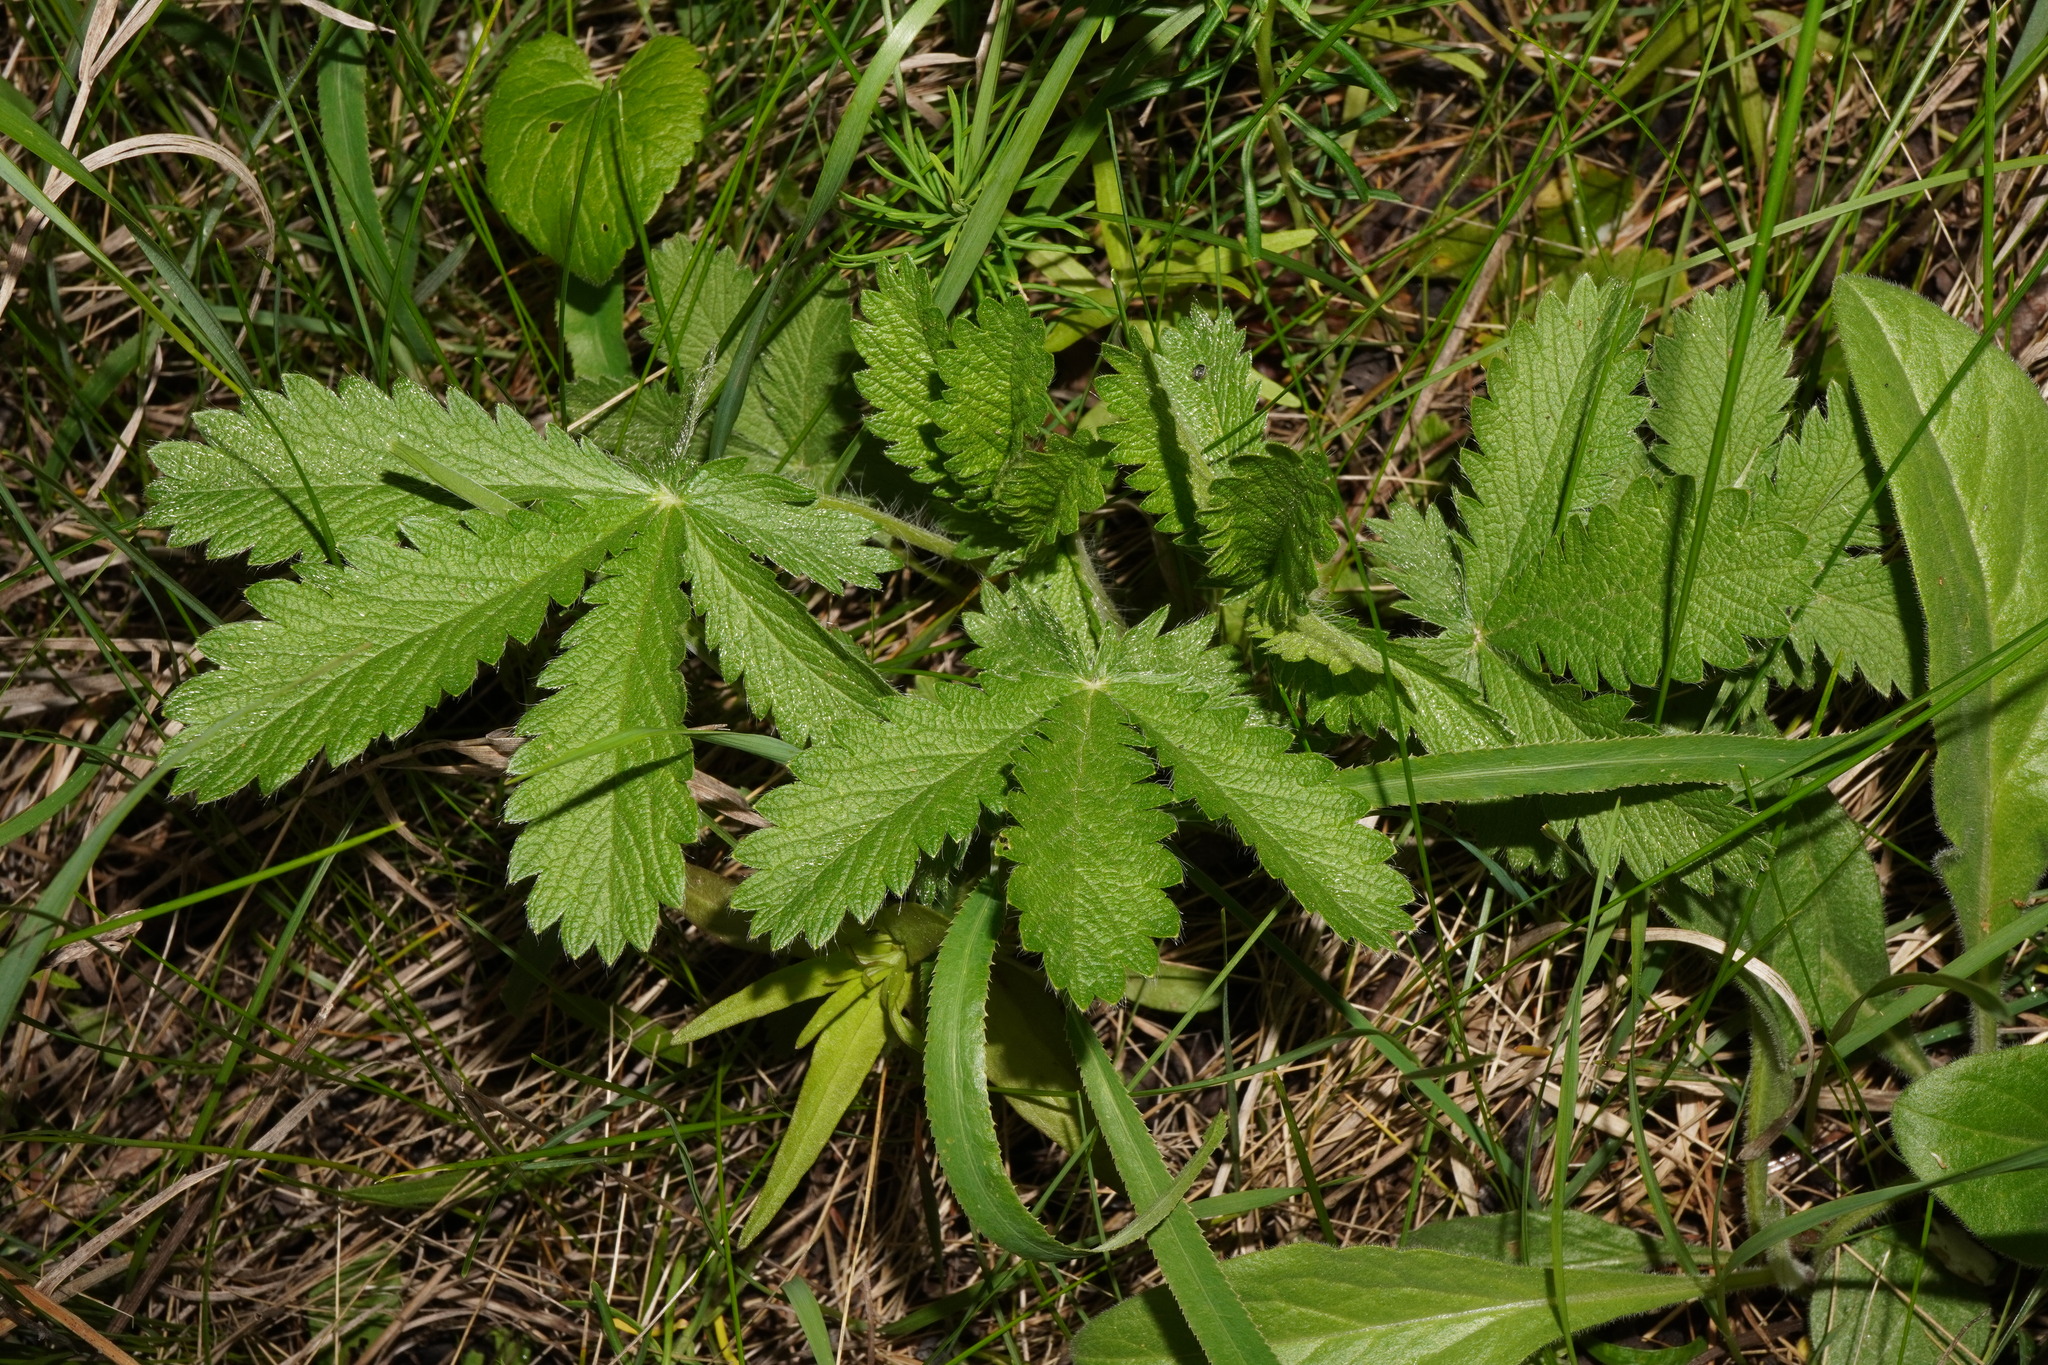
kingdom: Plantae
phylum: Tracheophyta
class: Magnoliopsida
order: Rosales
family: Rosaceae
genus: Potentilla
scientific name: Potentilla recta
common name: Sulphur cinquefoil
